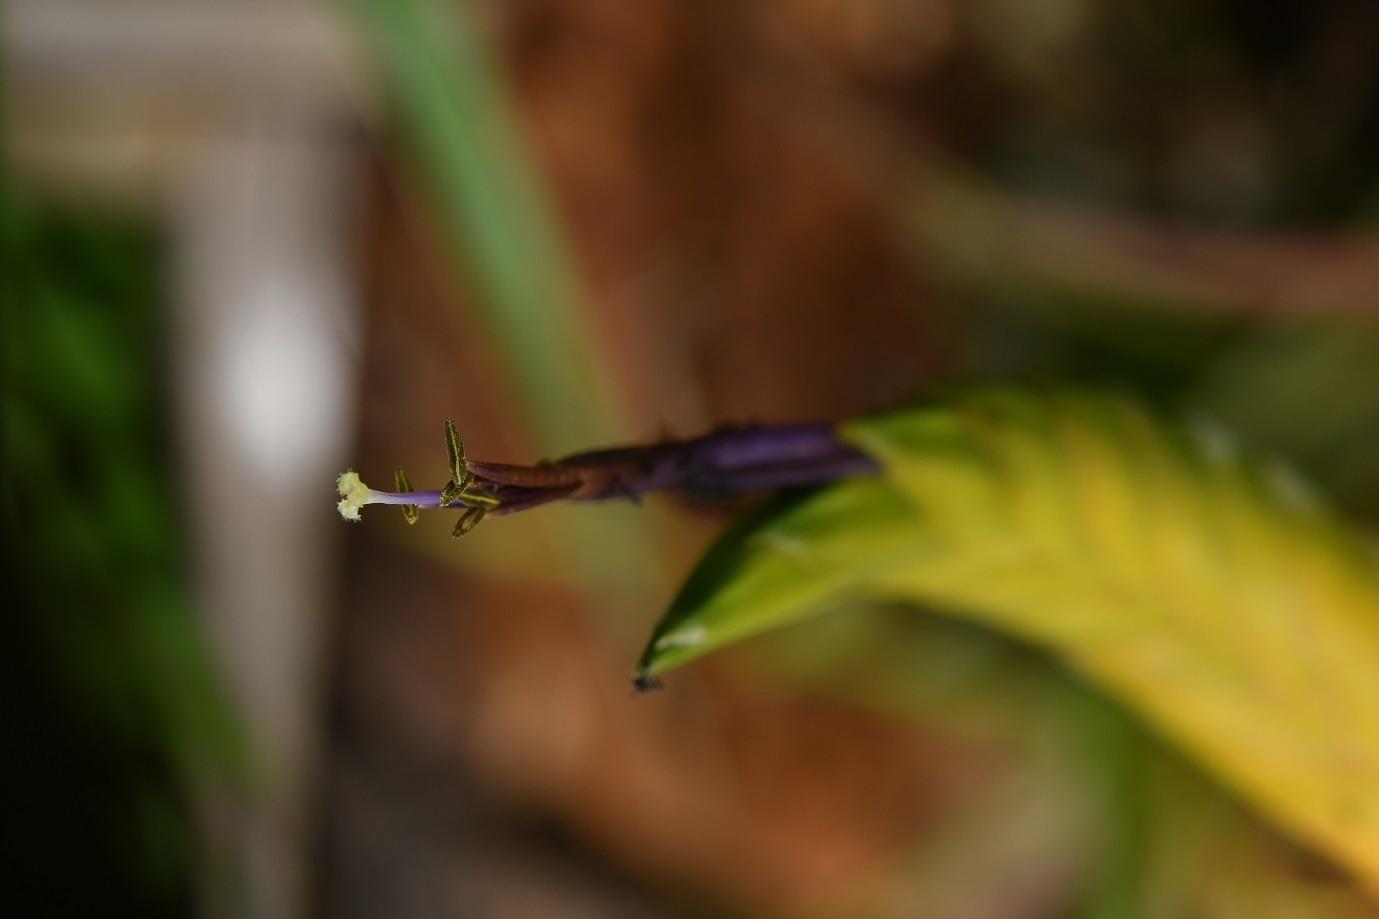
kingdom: Plantae
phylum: Tracheophyta
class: Liliopsida
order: Poales
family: Bromeliaceae
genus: Tillandsia
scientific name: Tillandsia tricolor
